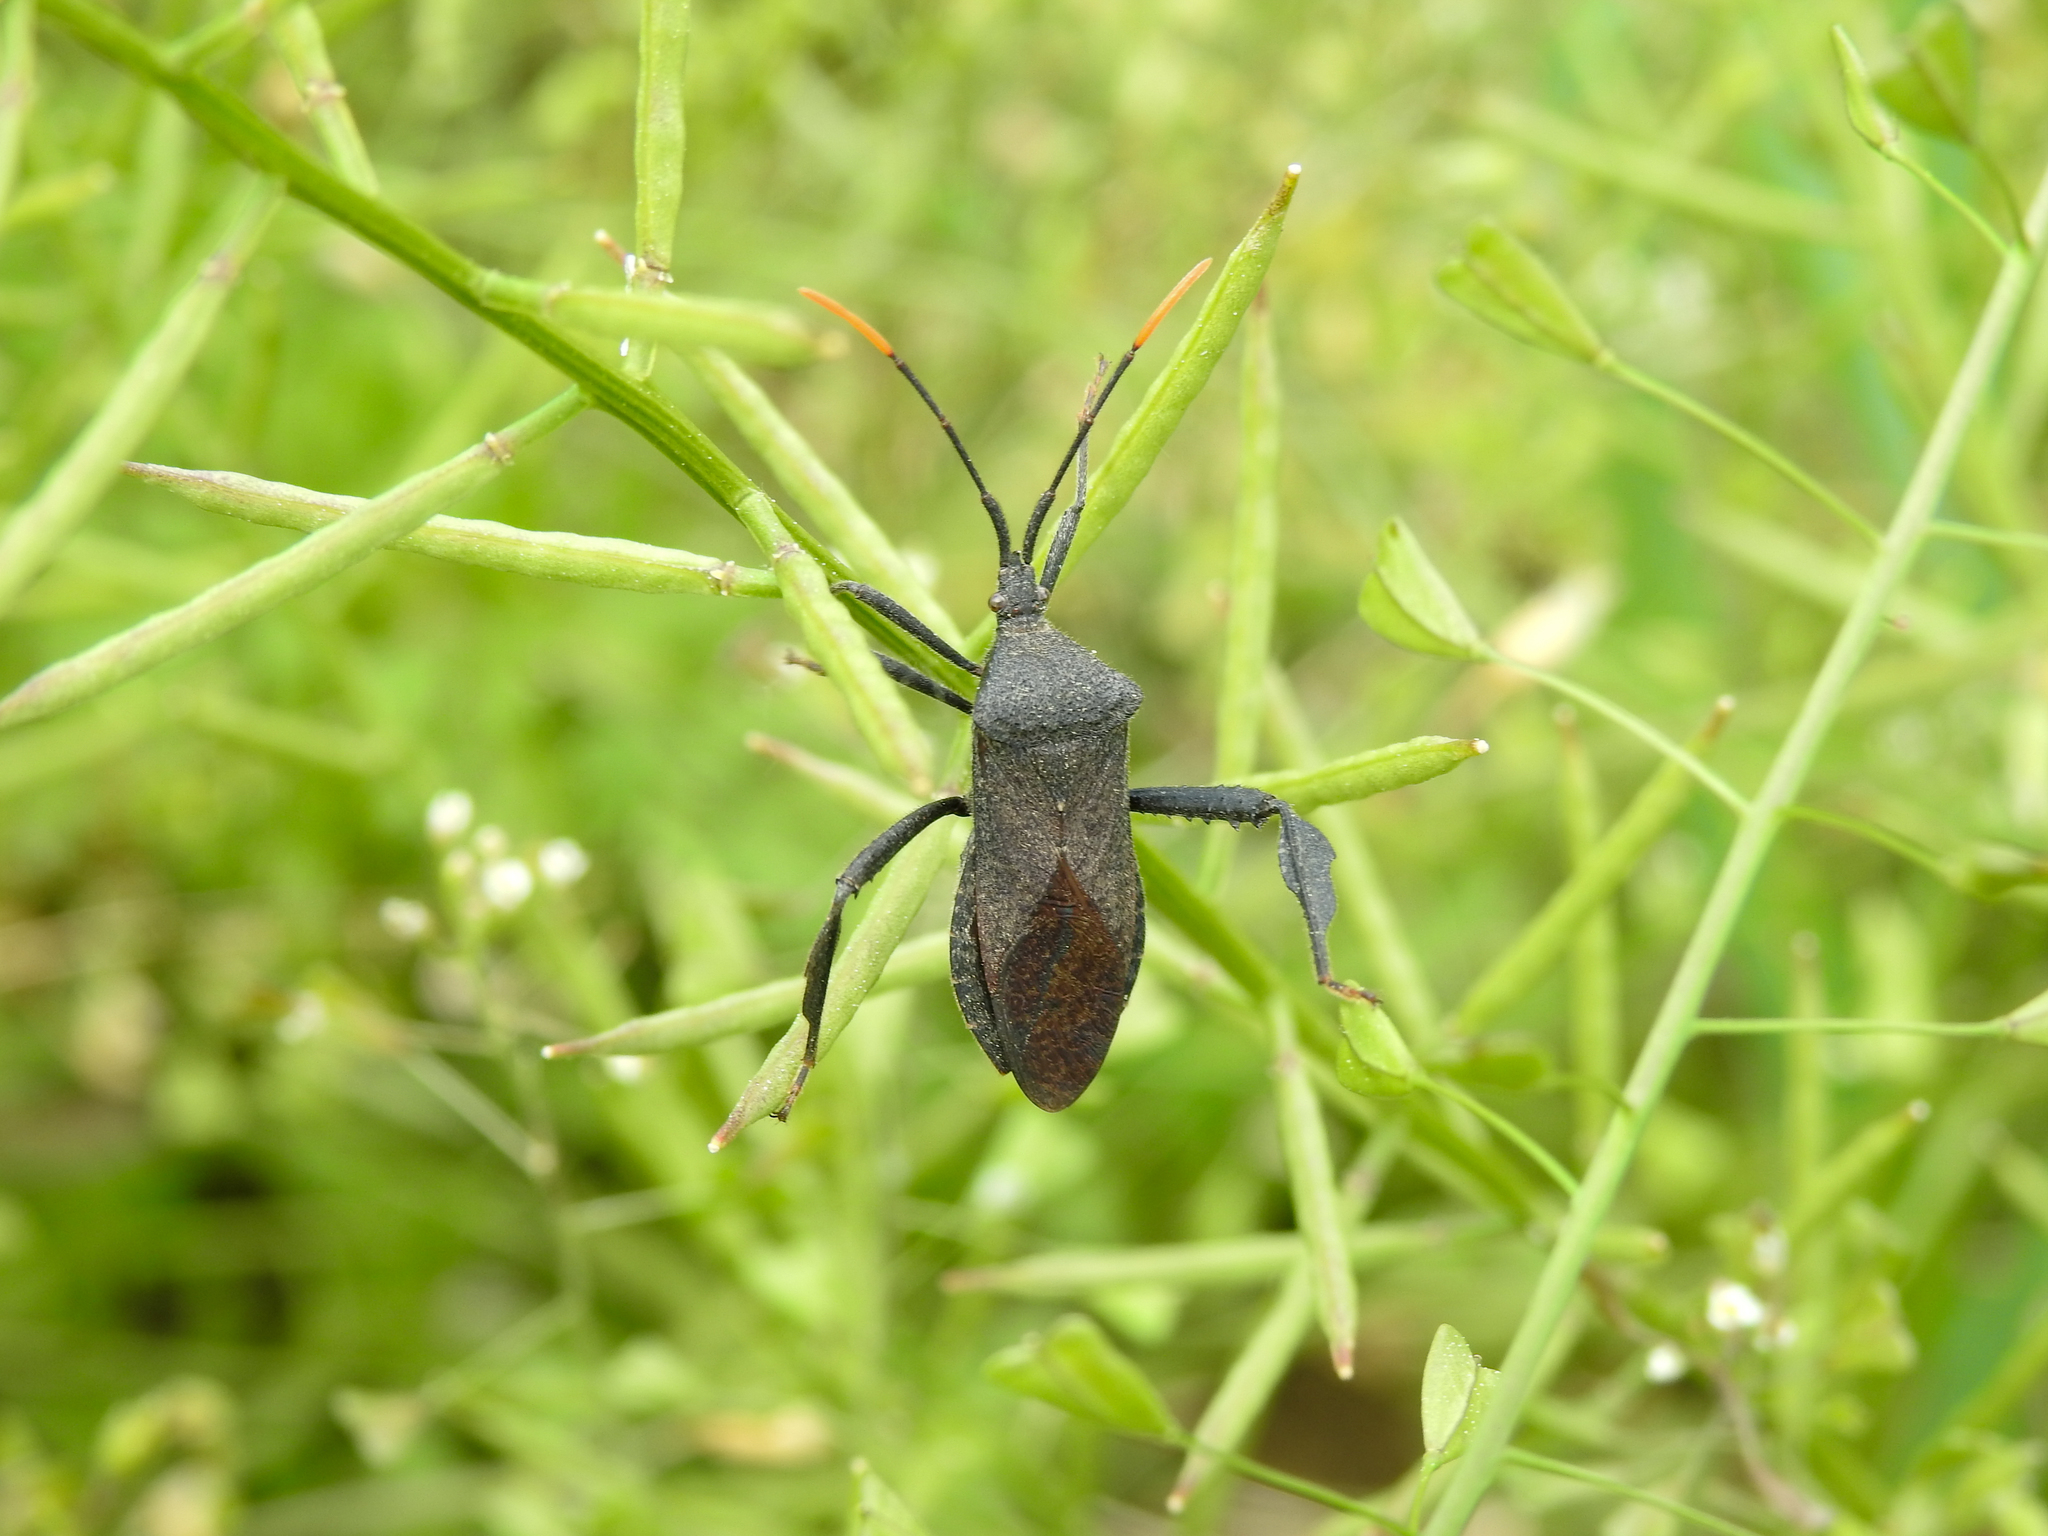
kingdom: Animalia
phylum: Arthropoda
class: Insecta
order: Hemiptera
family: Coreidae
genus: Acanthocephala
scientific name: Acanthocephala terminalis
